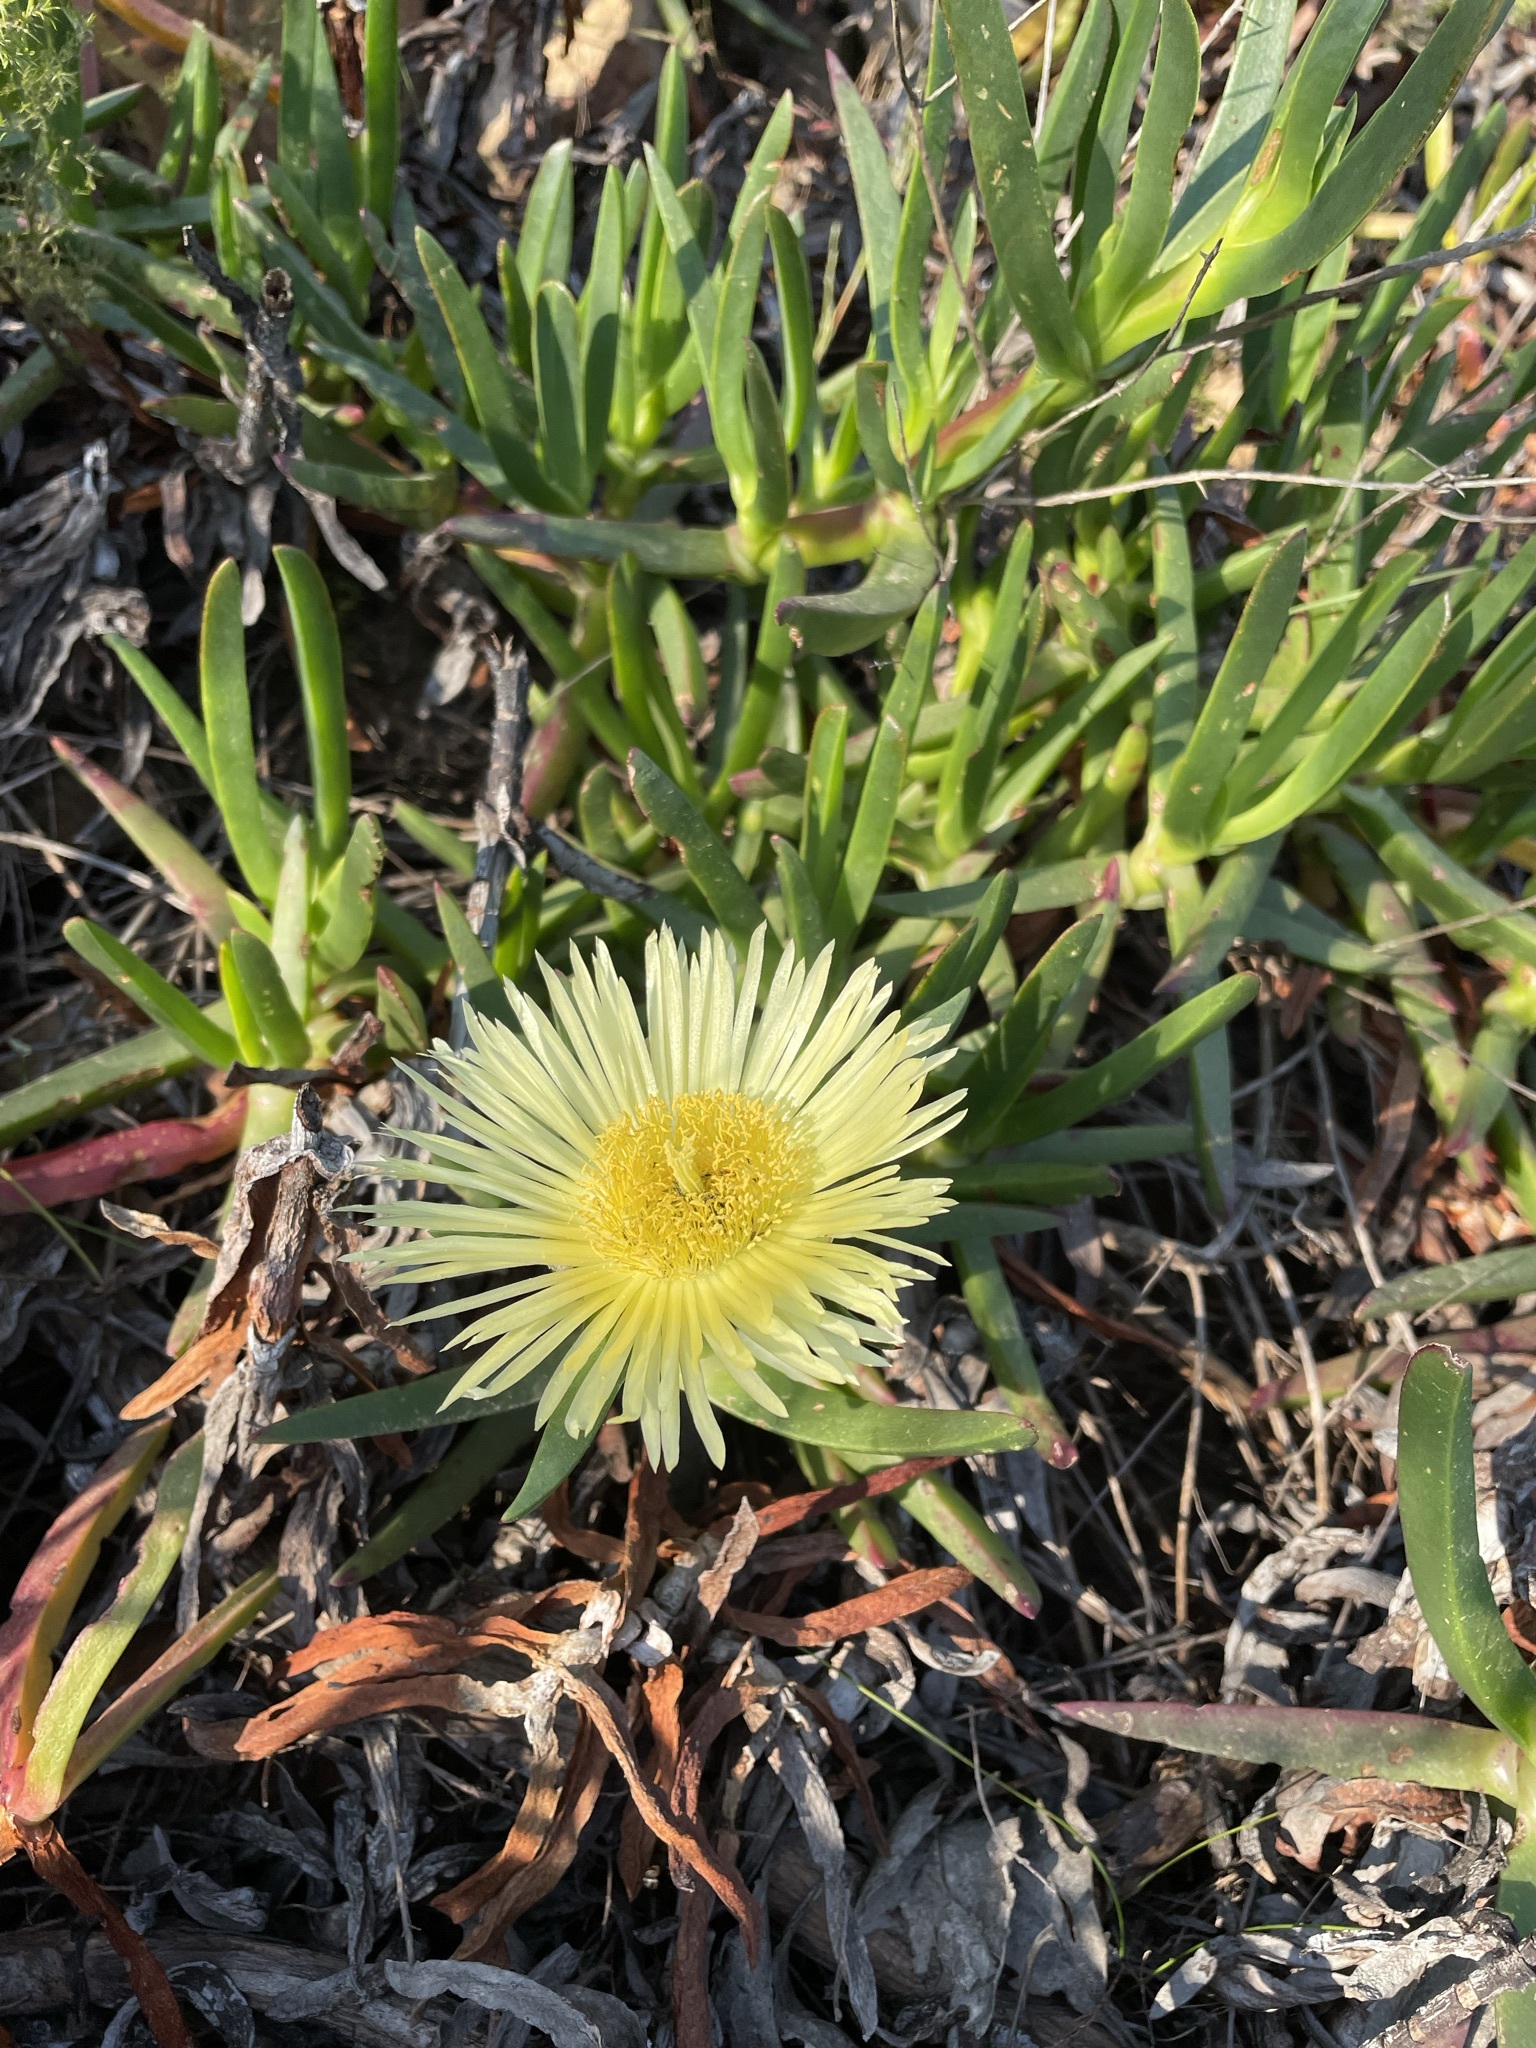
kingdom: Plantae
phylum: Tracheophyta
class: Magnoliopsida
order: Caryophyllales
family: Aizoaceae
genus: Carpobrotus
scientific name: Carpobrotus edulis
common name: Hottentot-fig
